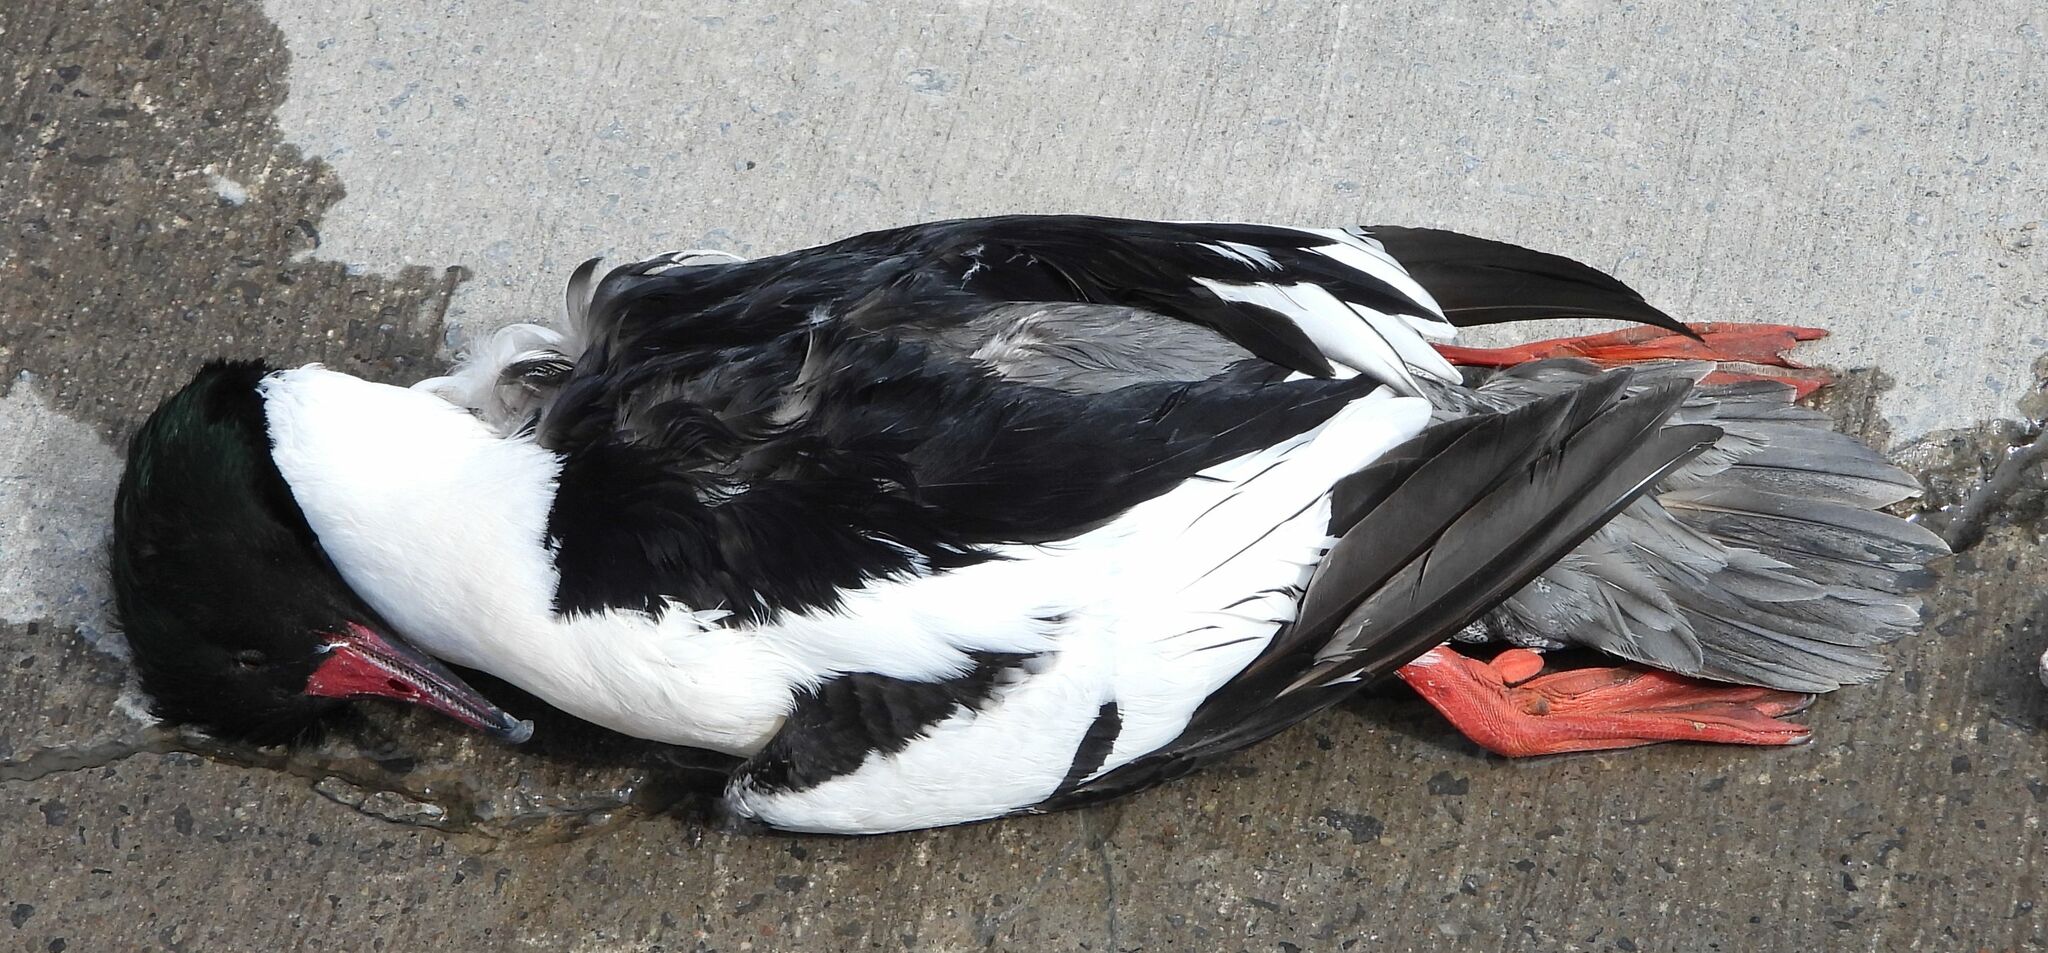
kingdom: Animalia
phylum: Chordata
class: Aves
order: Anseriformes
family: Anatidae
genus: Mergus
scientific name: Mergus merganser
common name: Common merganser
